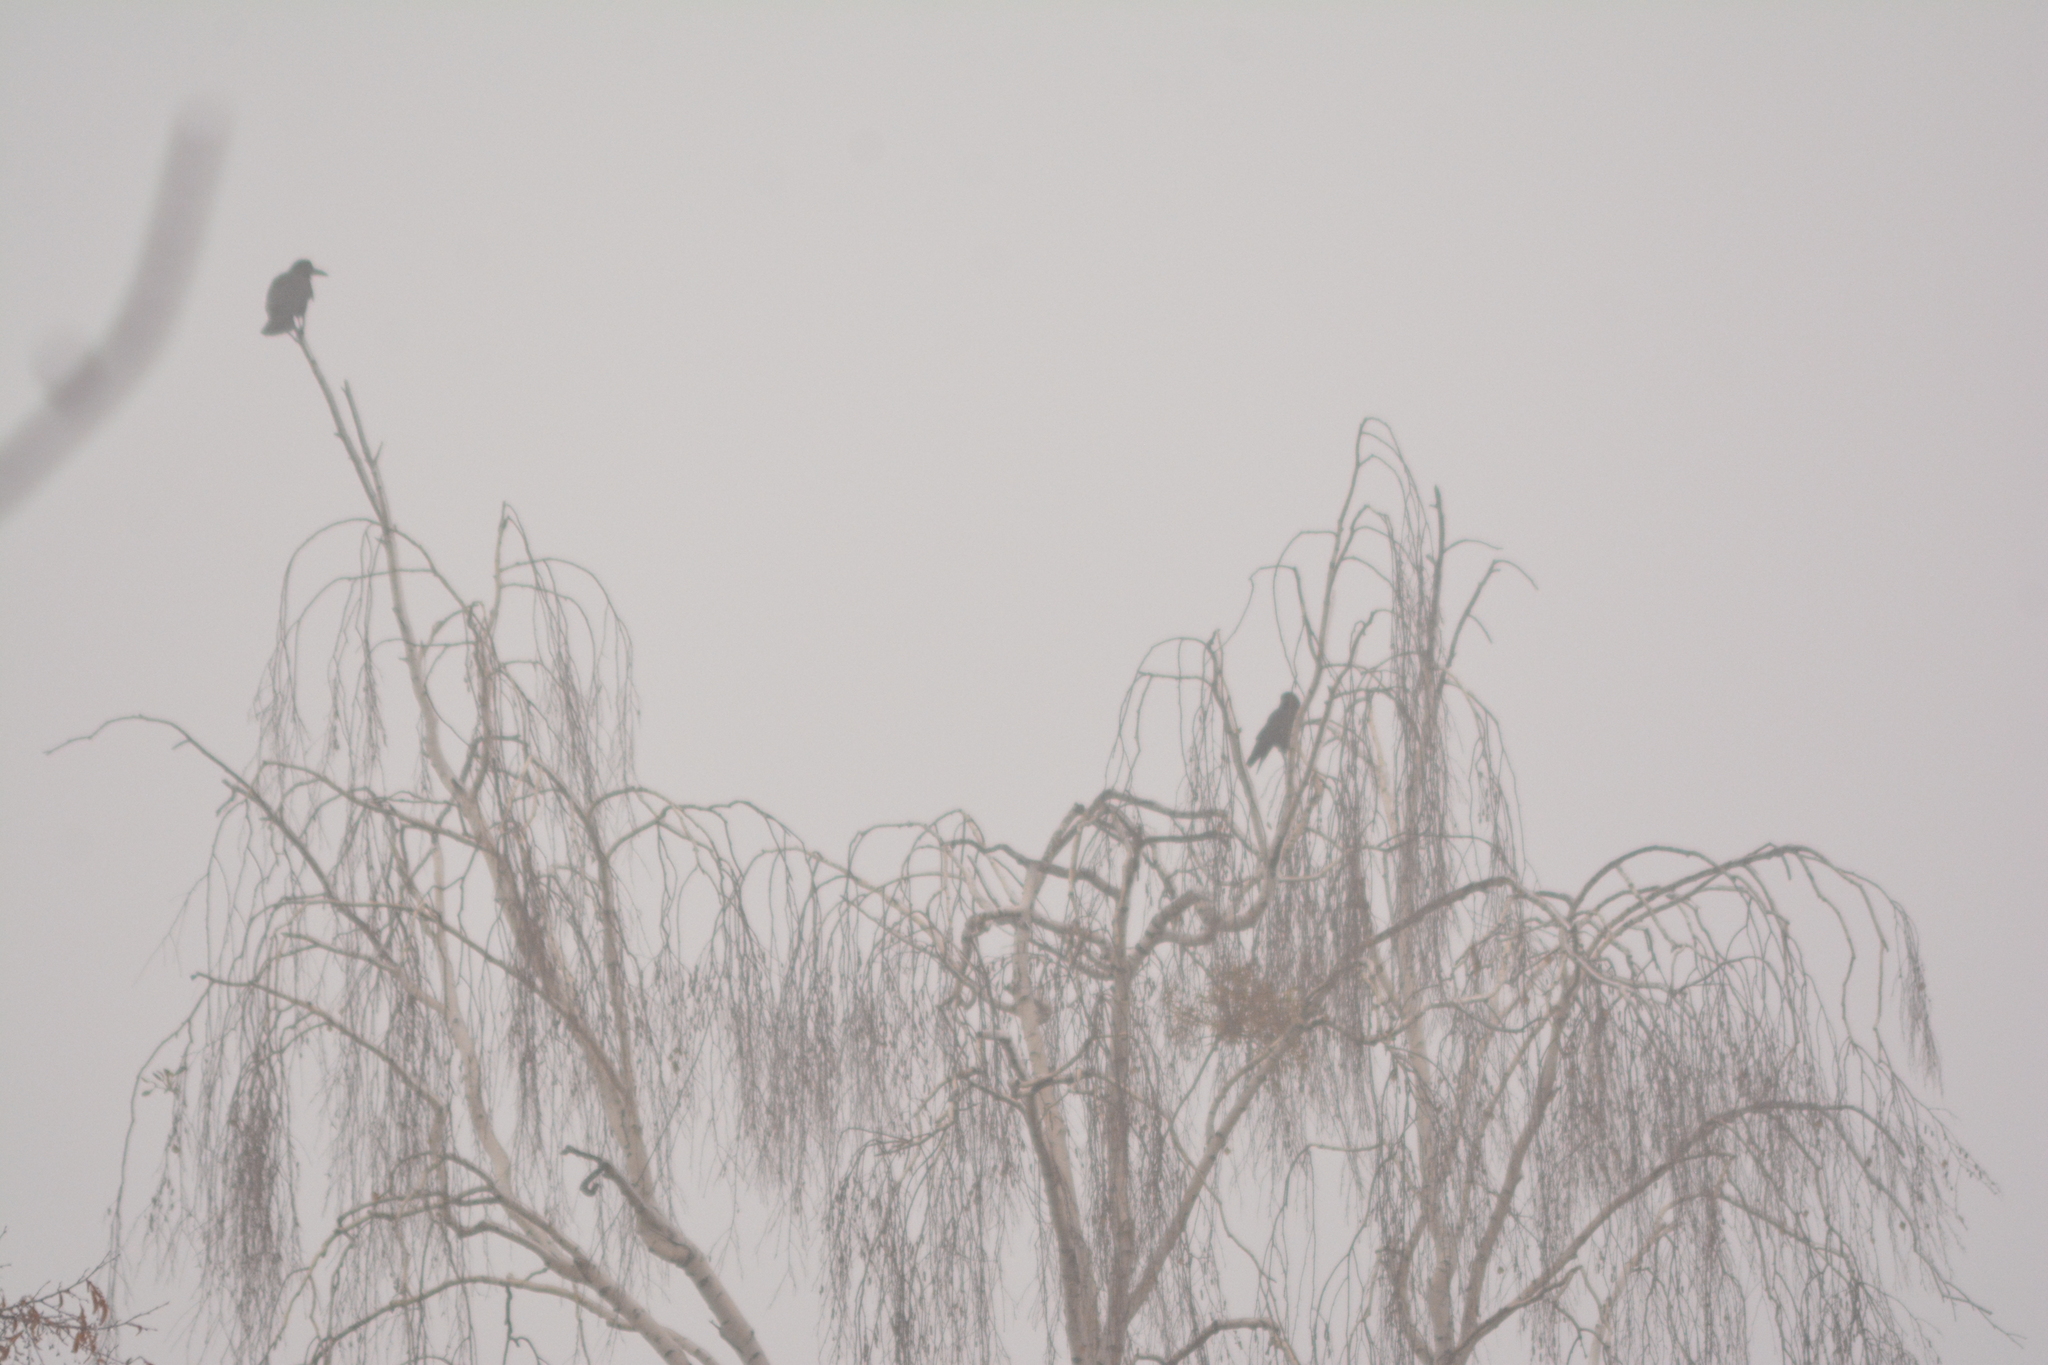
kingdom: Animalia
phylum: Chordata
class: Aves
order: Passeriformes
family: Corvidae
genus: Corvus
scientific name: Corvus frugilegus
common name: Rook
